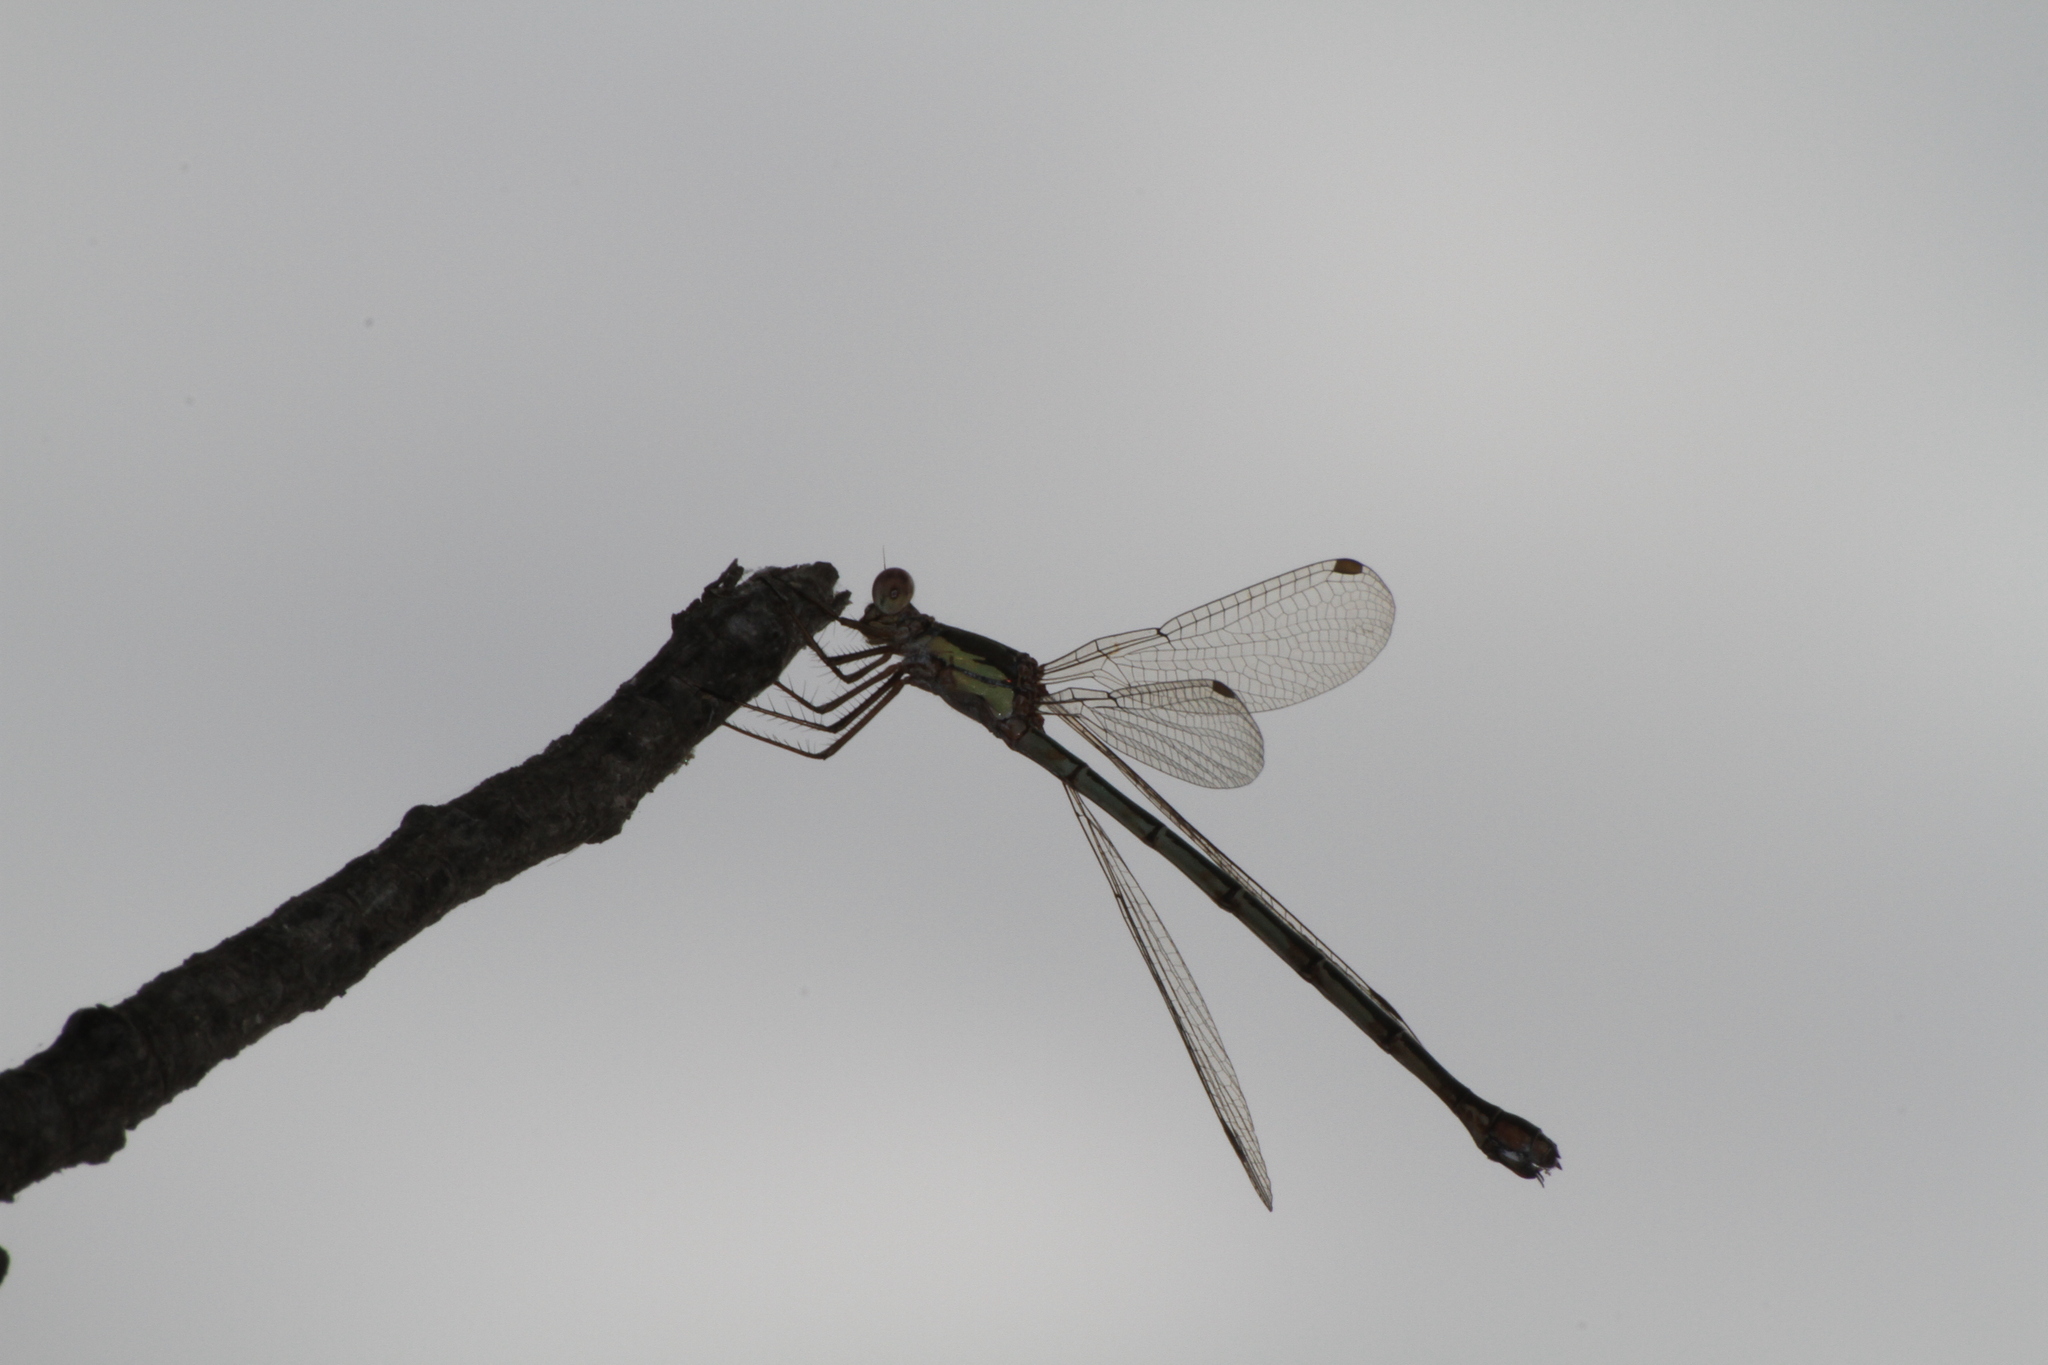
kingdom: Animalia
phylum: Arthropoda
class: Insecta
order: Odonata
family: Lestidae
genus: Chalcolestes
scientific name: Chalcolestes viridis
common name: Green emerald damselfly
